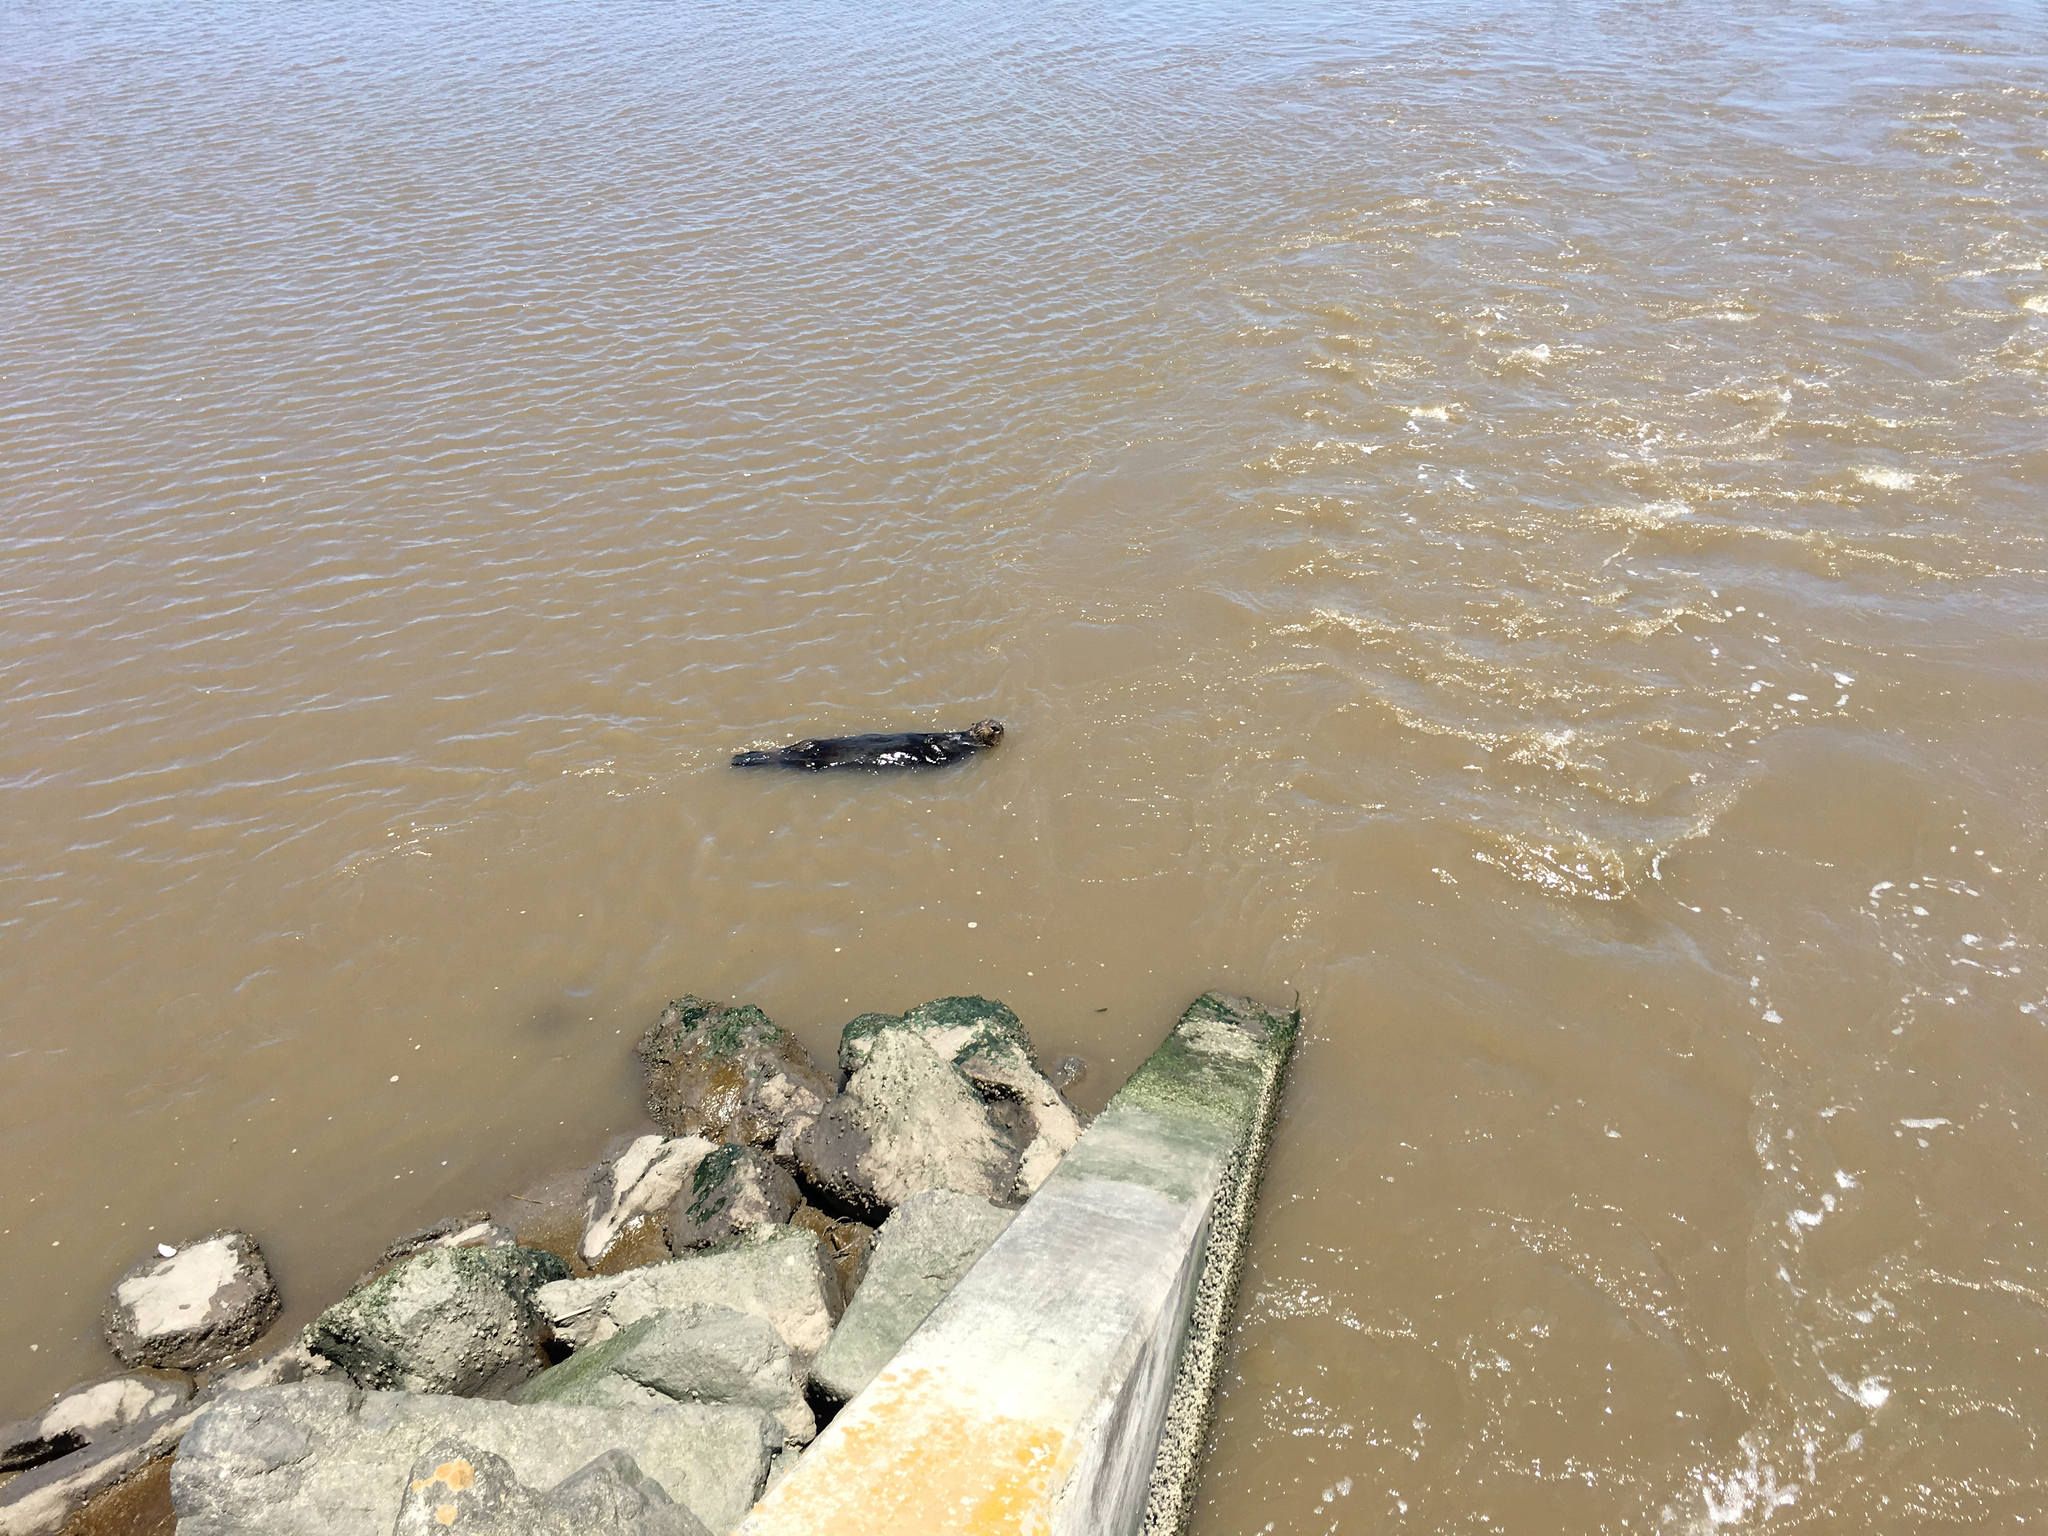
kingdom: Animalia
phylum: Chordata
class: Mammalia
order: Carnivora
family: Mustelidae
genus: Enhydra
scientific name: Enhydra lutris
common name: Sea otter
